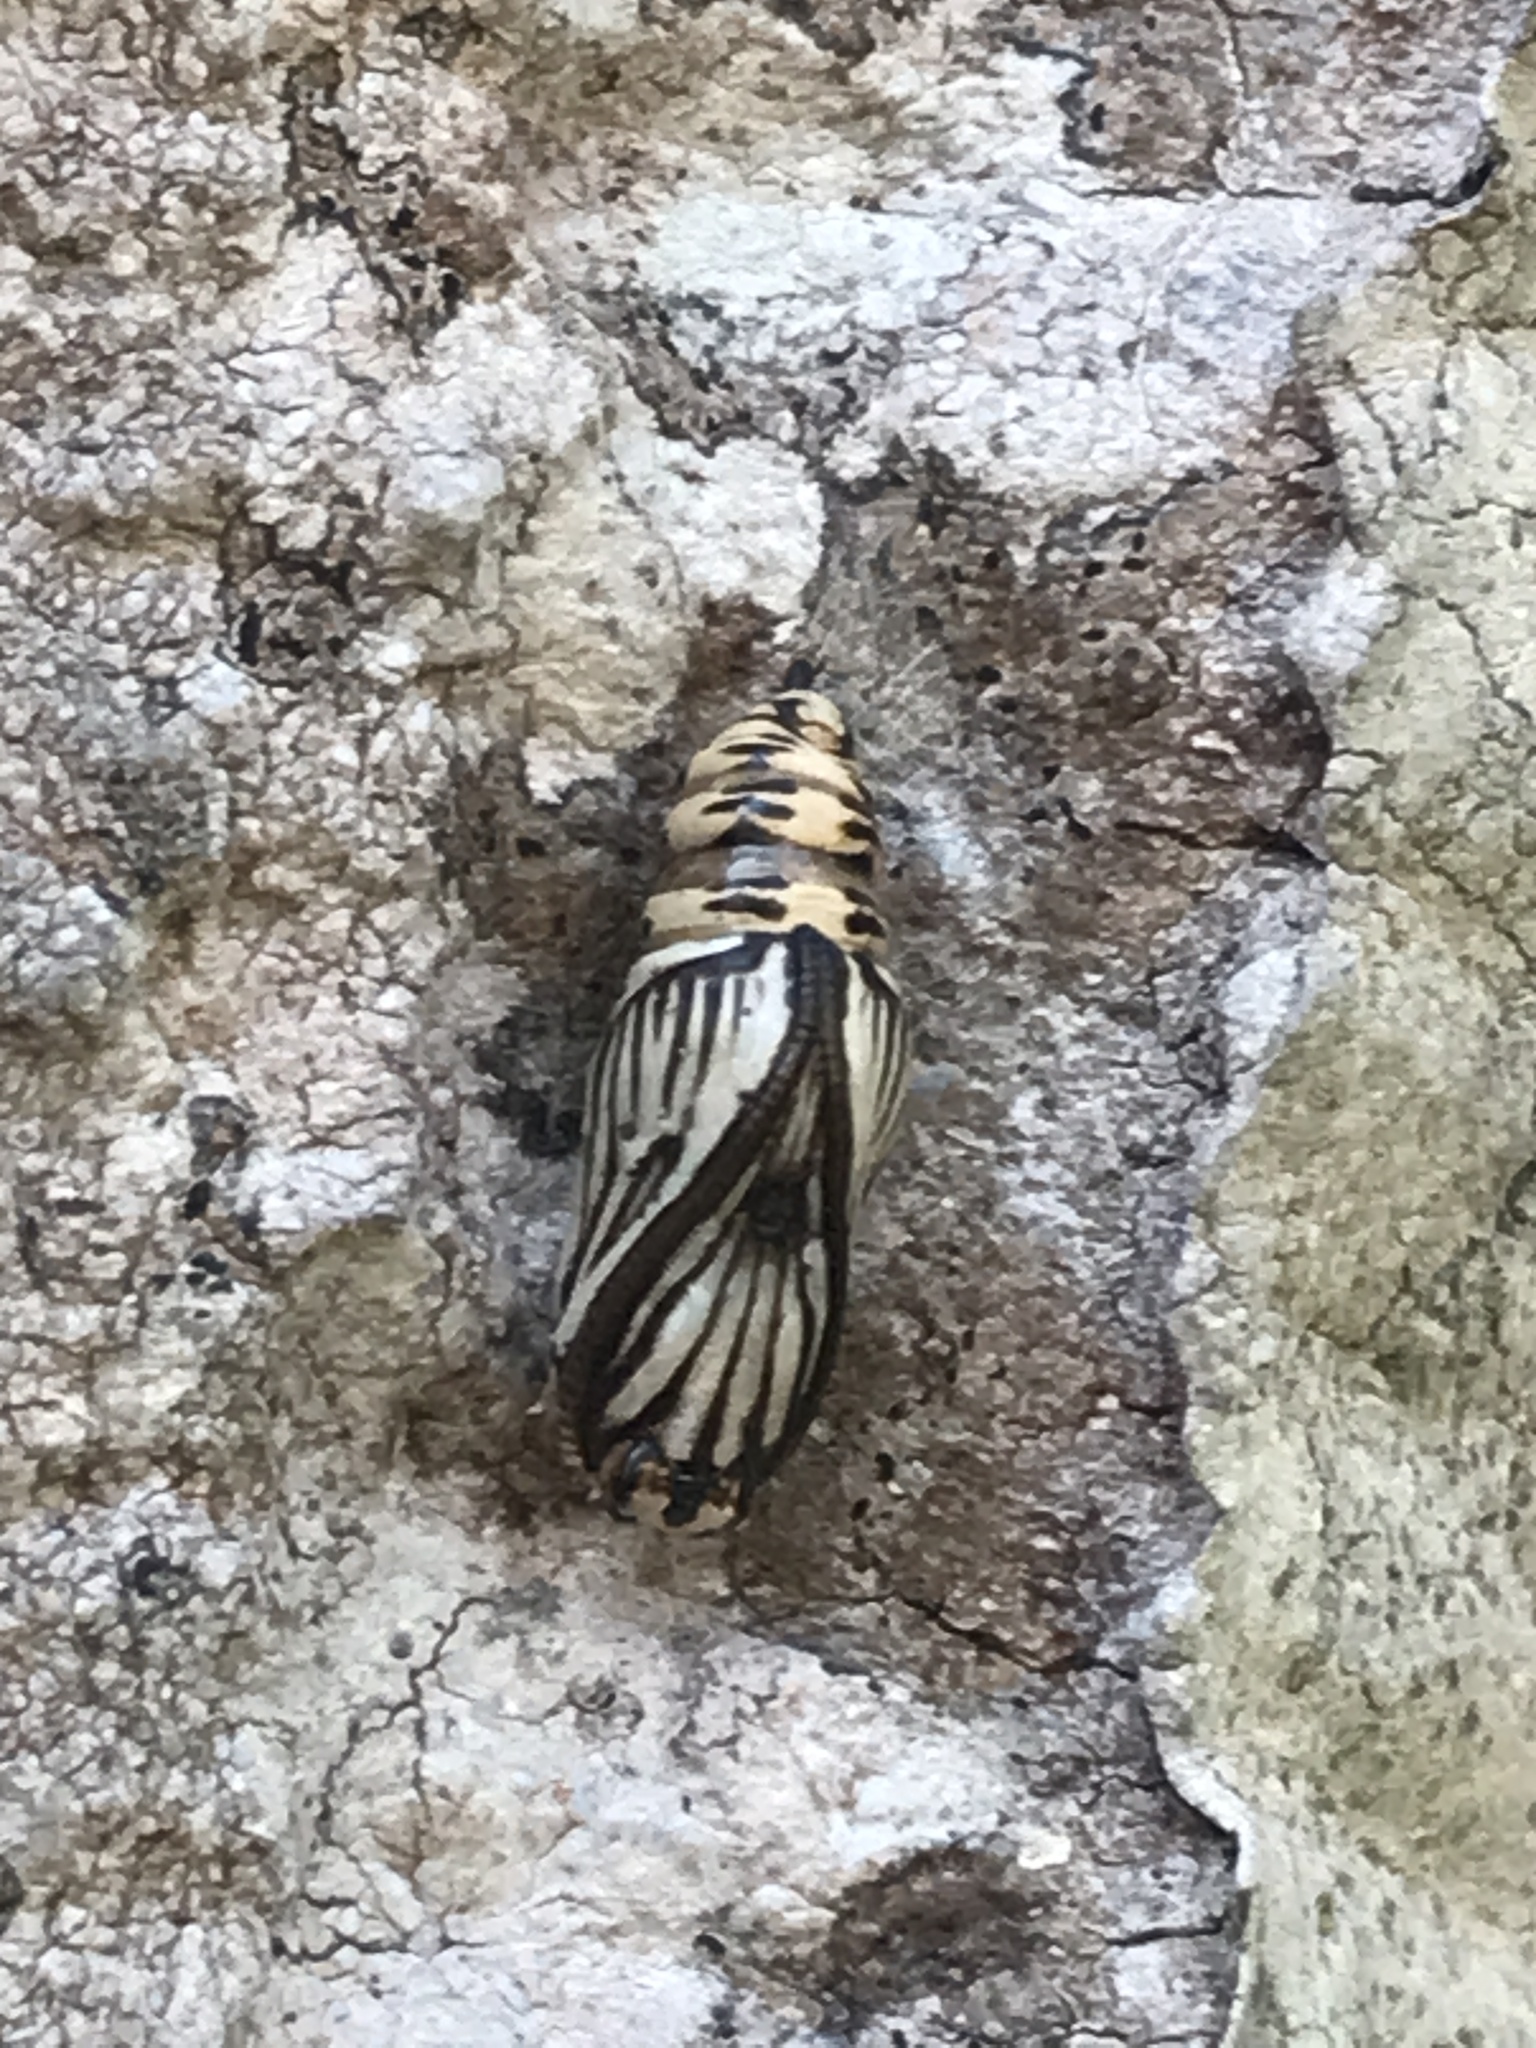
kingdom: Animalia
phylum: Arthropoda
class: Insecta
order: Lepidoptera
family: Notodontidae
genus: Phryganidia
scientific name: Phryganidia californica
